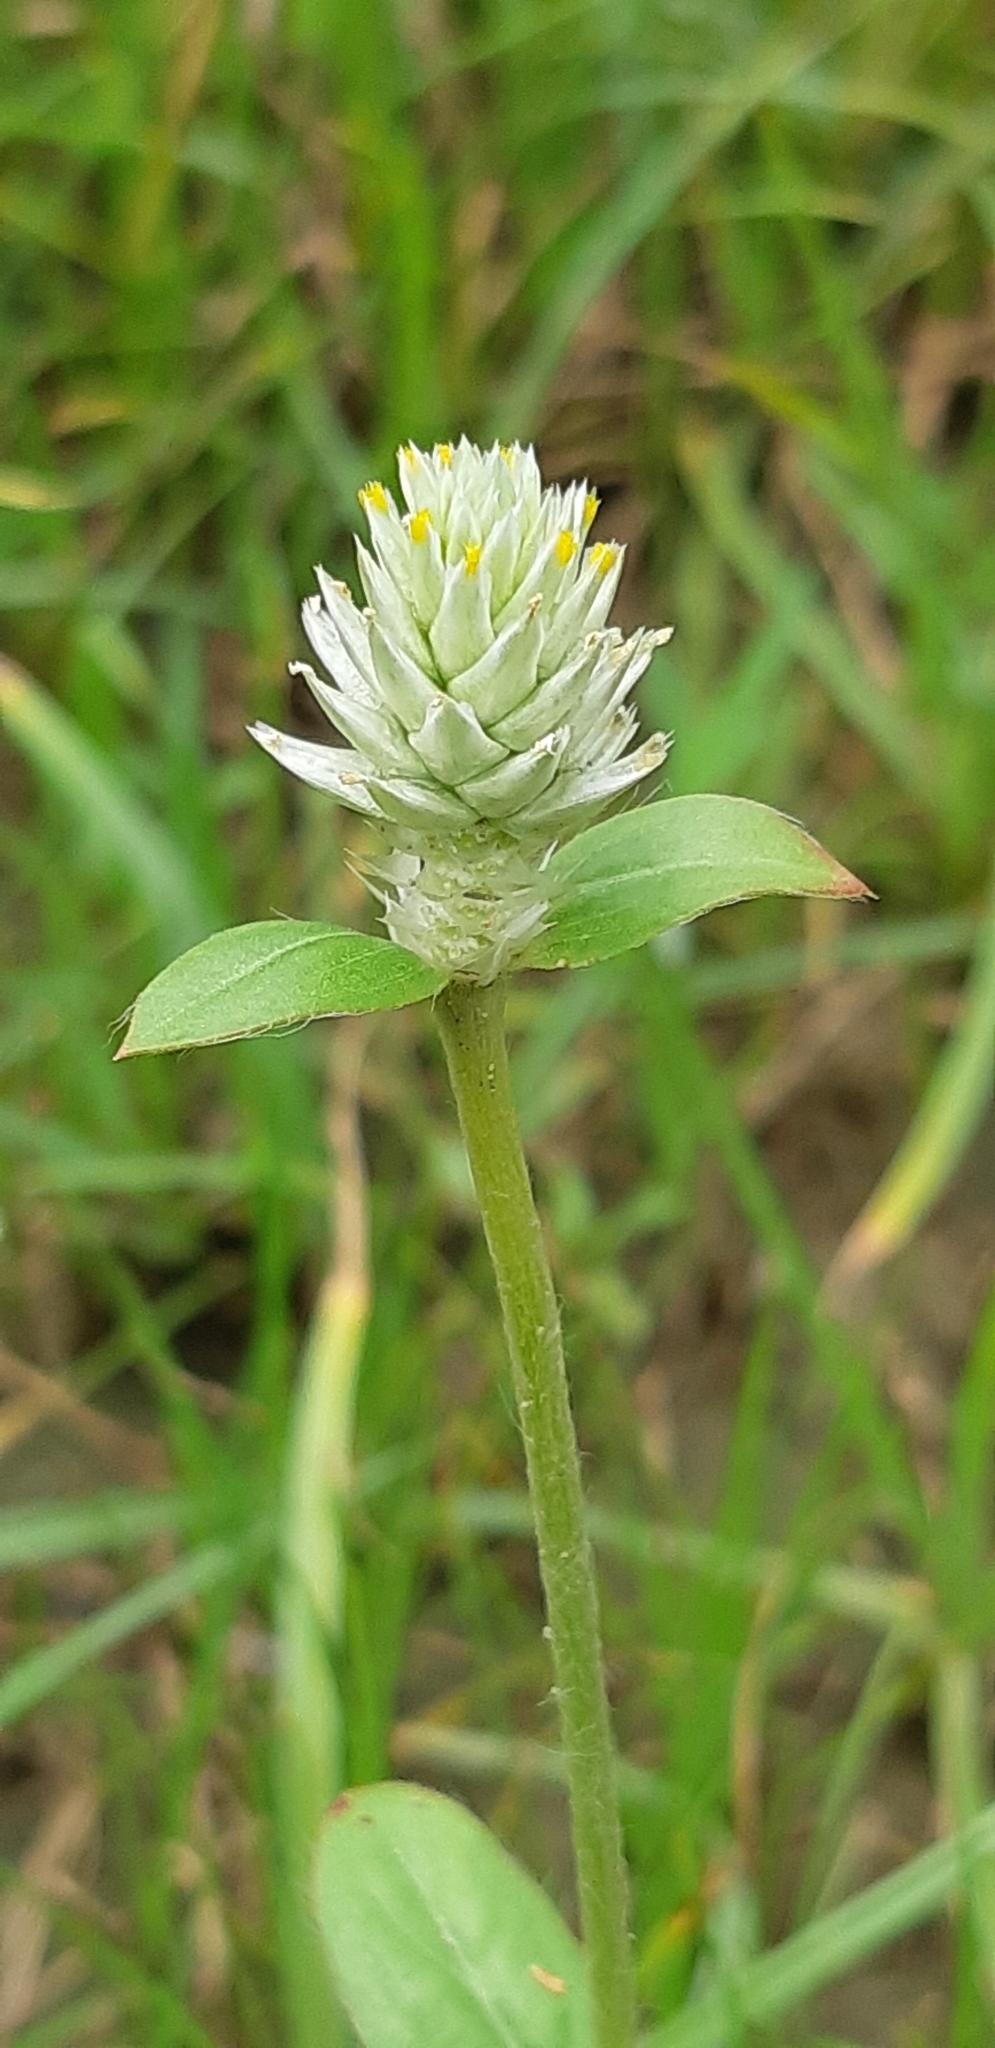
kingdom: Plantae
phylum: Tracheophyta
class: Magnoliopsida
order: Caryophyllales
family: Amaranthaceae
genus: Gomphrena
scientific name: Gomphrena celosioides
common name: Gomphrena-weed
